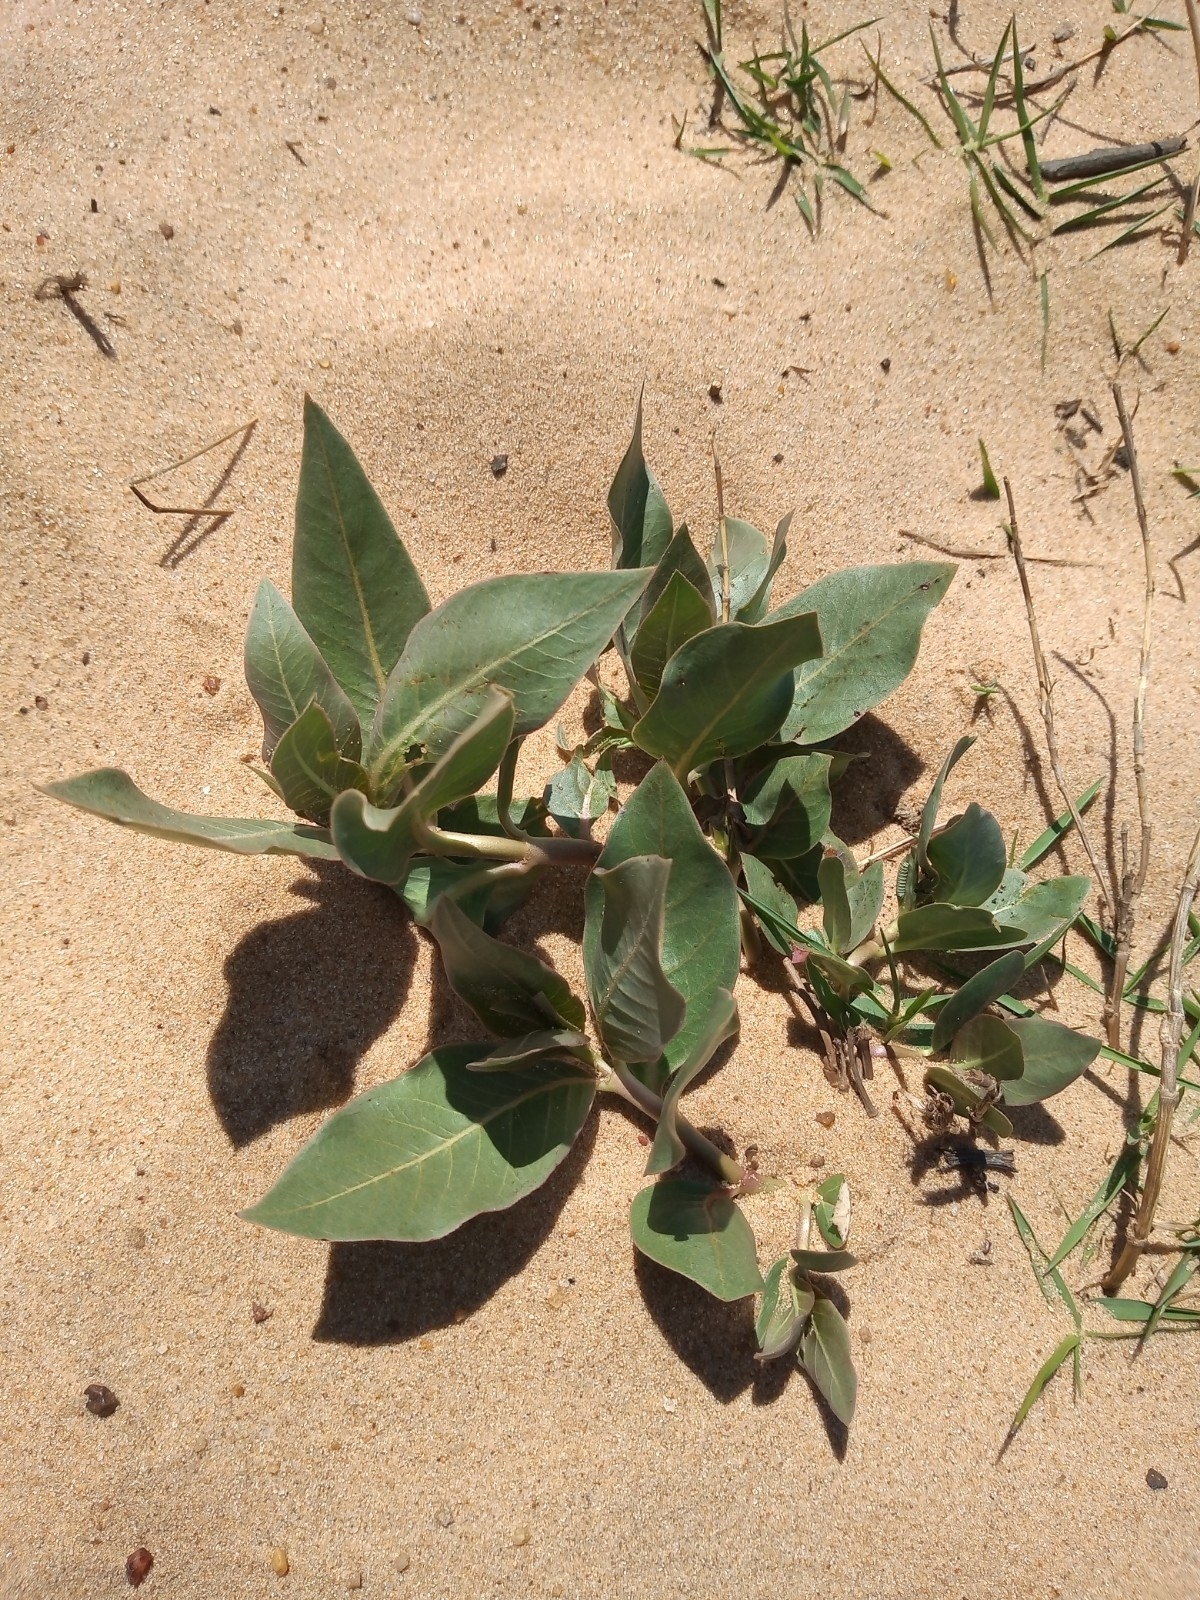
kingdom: Plantae
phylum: Tracheophyta
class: Magnoliopsida
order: Gentianales
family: Apocynaceae
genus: Asclepias
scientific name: Asclepias candida
